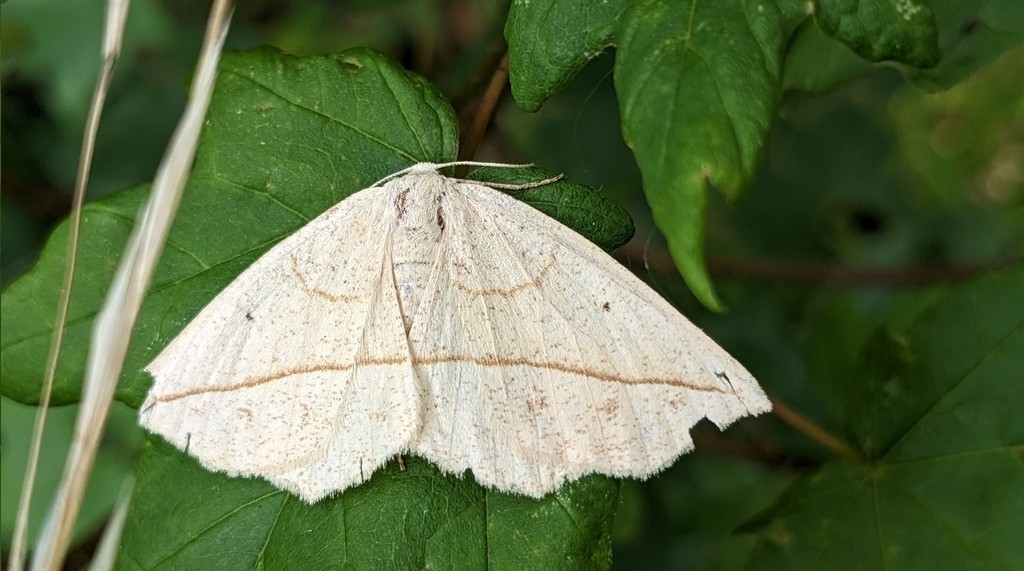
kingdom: Animalia
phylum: Arthropoda
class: Insecta
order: Lepidoptera
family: Geometridae
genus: Eusarca
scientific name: Eusarca confusaria
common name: Confused eusarca
